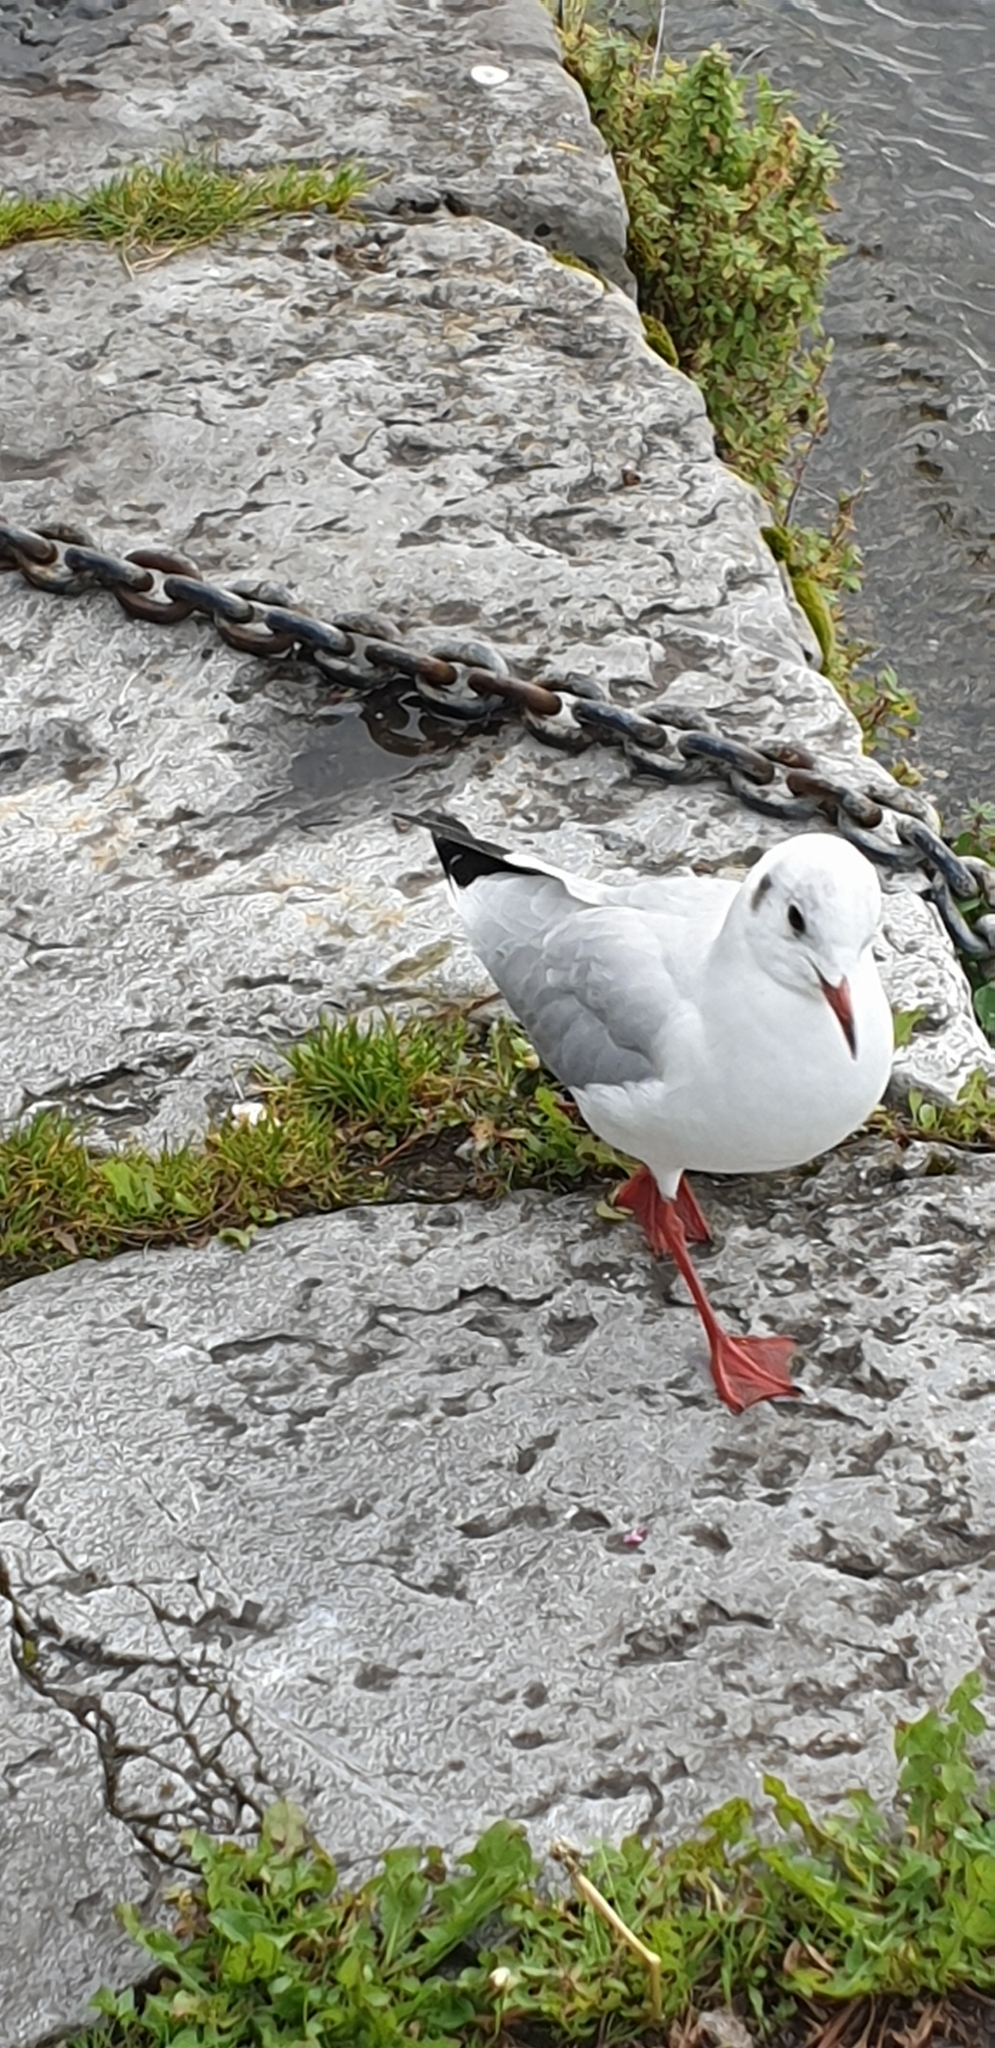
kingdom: Animalia
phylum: Chordata
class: Aves
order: Charadriiformes
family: Laridae
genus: Chroicocephalus
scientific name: Chroicocephalus ridibundus
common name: Black-headed gull
